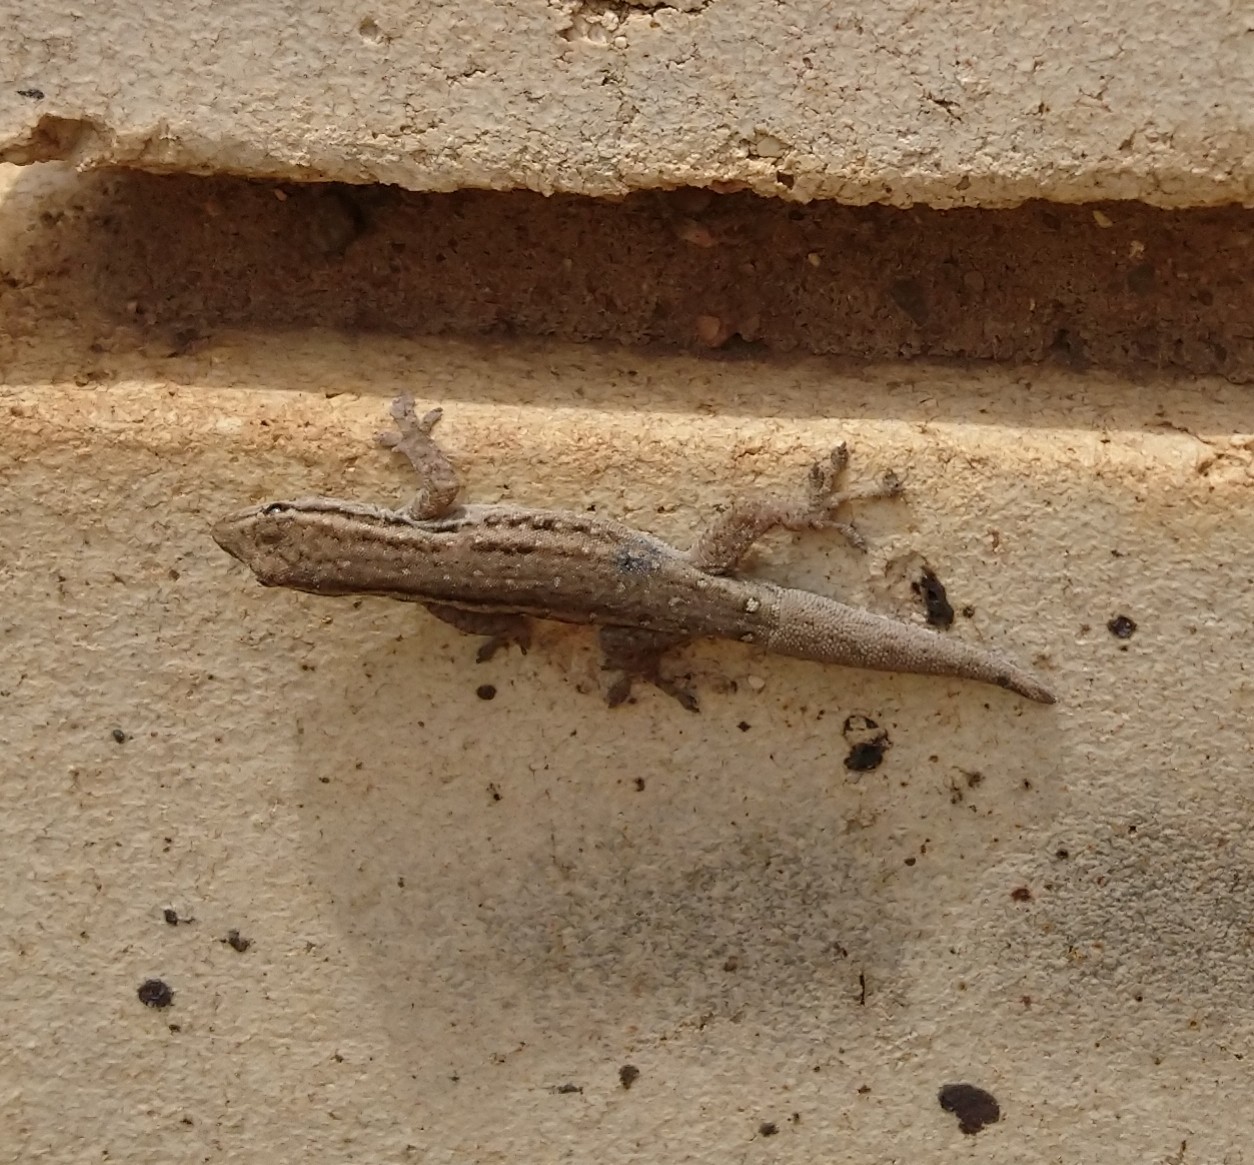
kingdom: Animalia
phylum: Chordata
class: Squamata
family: Gekkonidae
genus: Lygodactylus
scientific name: Lygodactylus capensis
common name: Cape dwarf gecko
